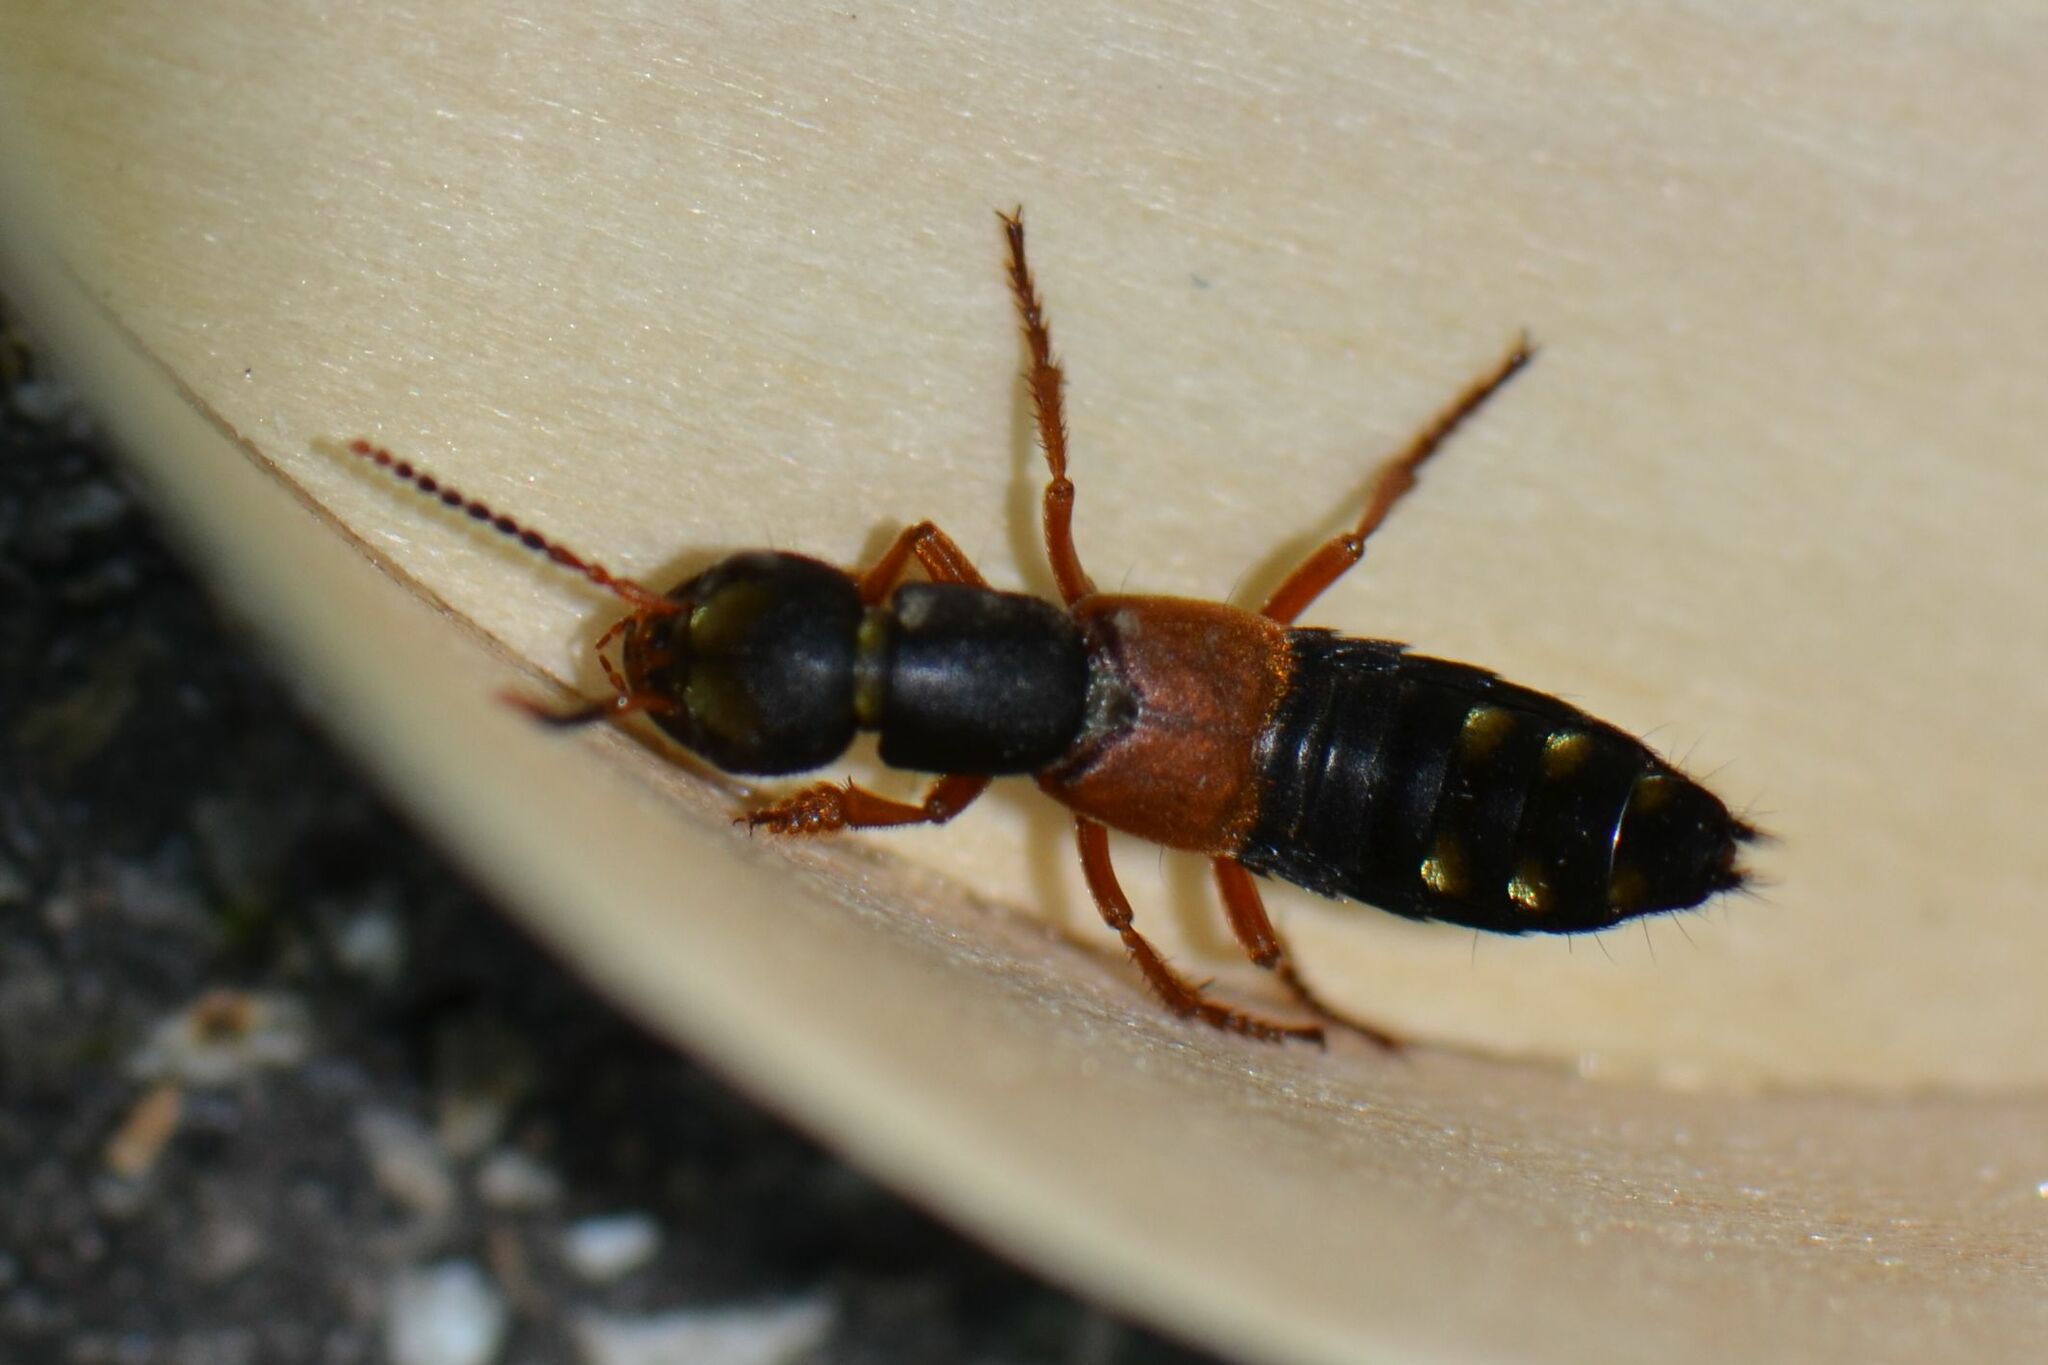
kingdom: Animalia
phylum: Arthropoda
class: Insecta
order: Coleoptera
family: Staphylinidae
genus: Staphylinus
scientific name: Staphylinus erythropterus
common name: Staph beetle
